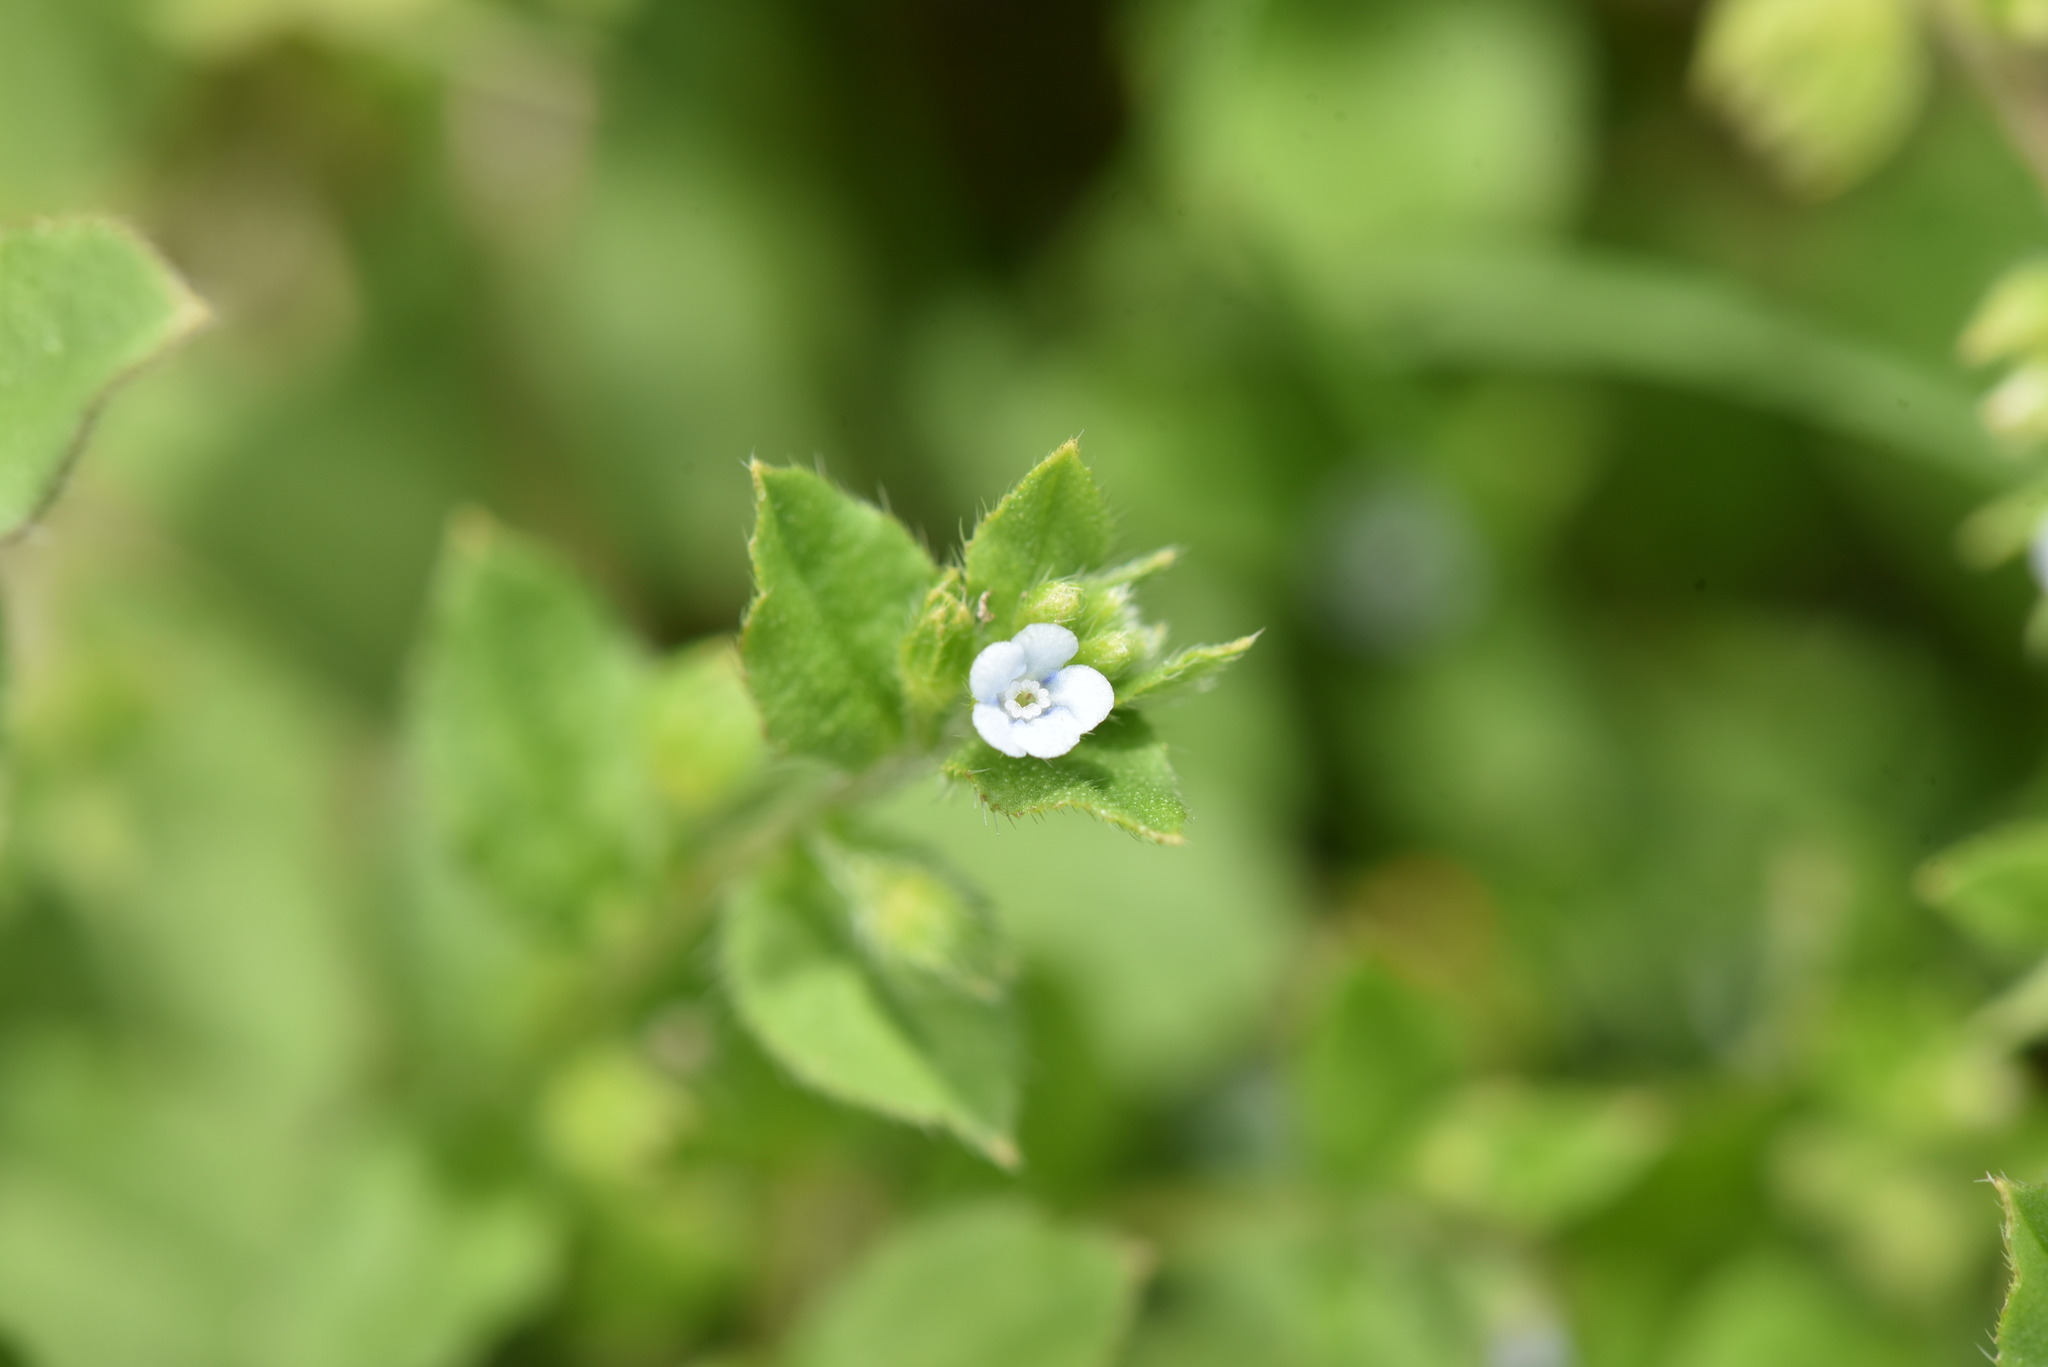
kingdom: Plantae
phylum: Tracheophyta
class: Magnoliopsida
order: Boraginales
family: Boraginaceae
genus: Bothriospermum
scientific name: Bothriospermum zeylanicum
